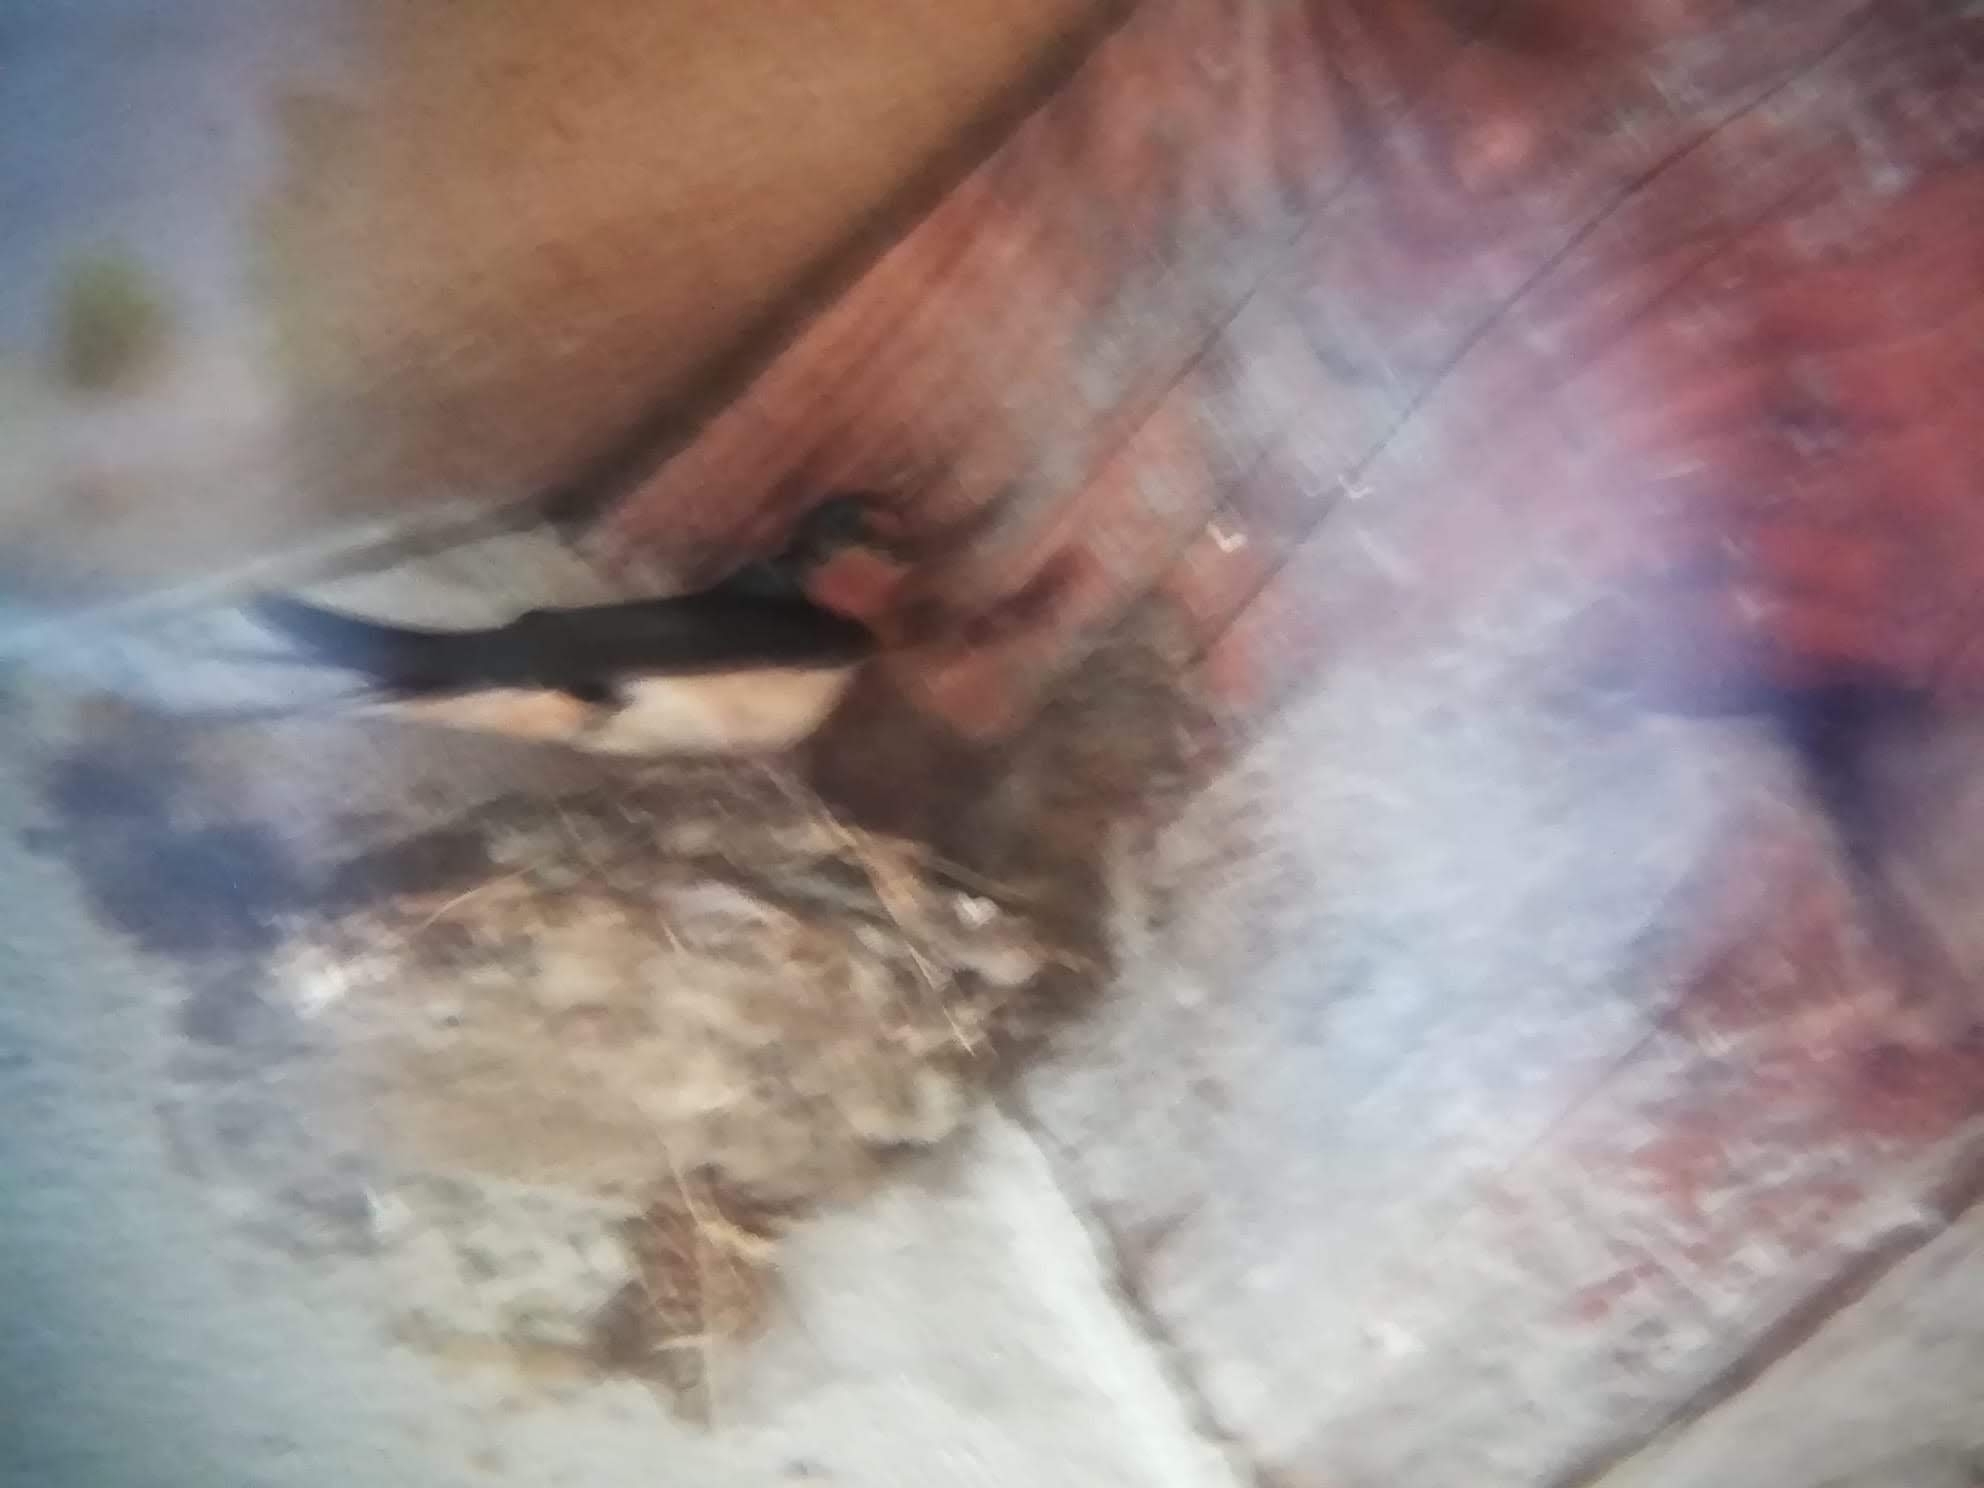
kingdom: Animalia
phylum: Chordata
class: Aves
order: Passeriformes
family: Hirundinidae
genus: Hirundo
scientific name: Hirundo rustica
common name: Barn swallow
